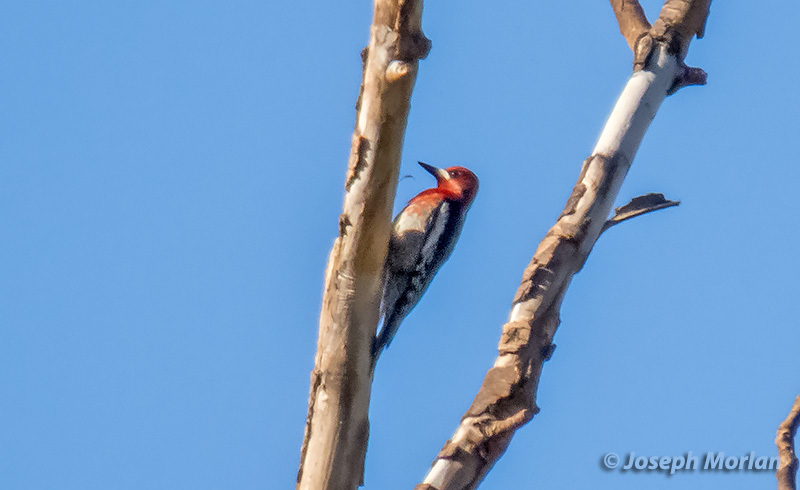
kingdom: Animalia
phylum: Chordata
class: Aves
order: Piciformes
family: Picidae
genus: Sphyrapicus
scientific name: Sphyrapicus ruber
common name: Red-breasted sapsucker
